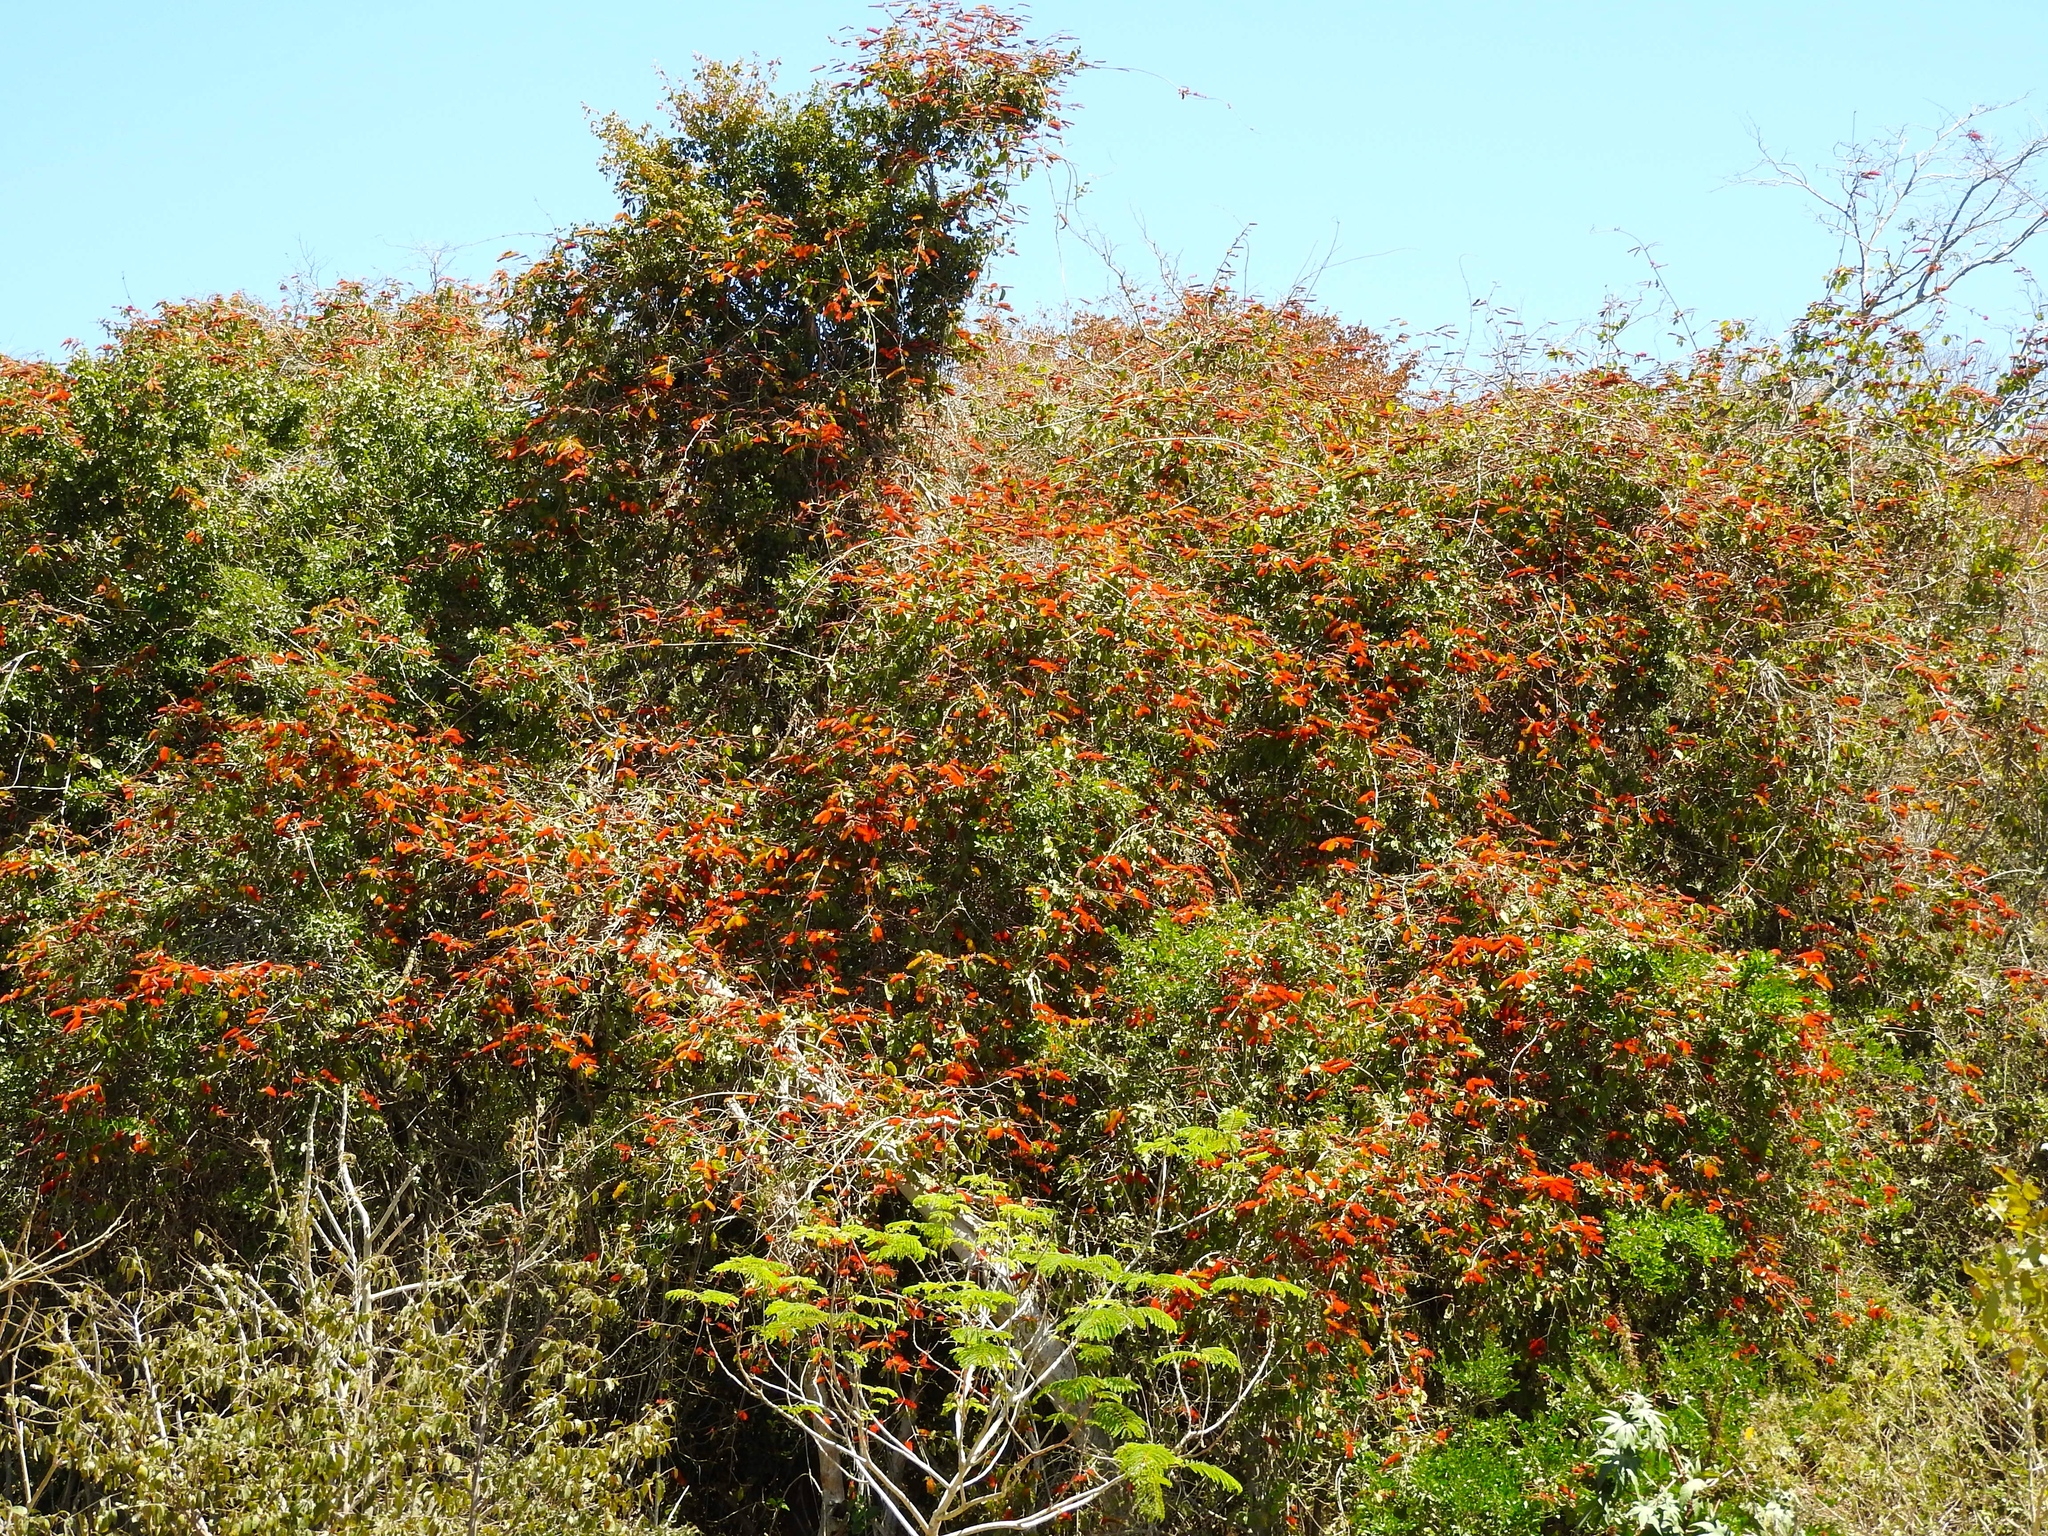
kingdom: Plantae
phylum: Tracheophyta
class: Magnoliopsida
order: Myrtales
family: Combretaceae
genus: Combretum
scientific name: Combretum farinosum
